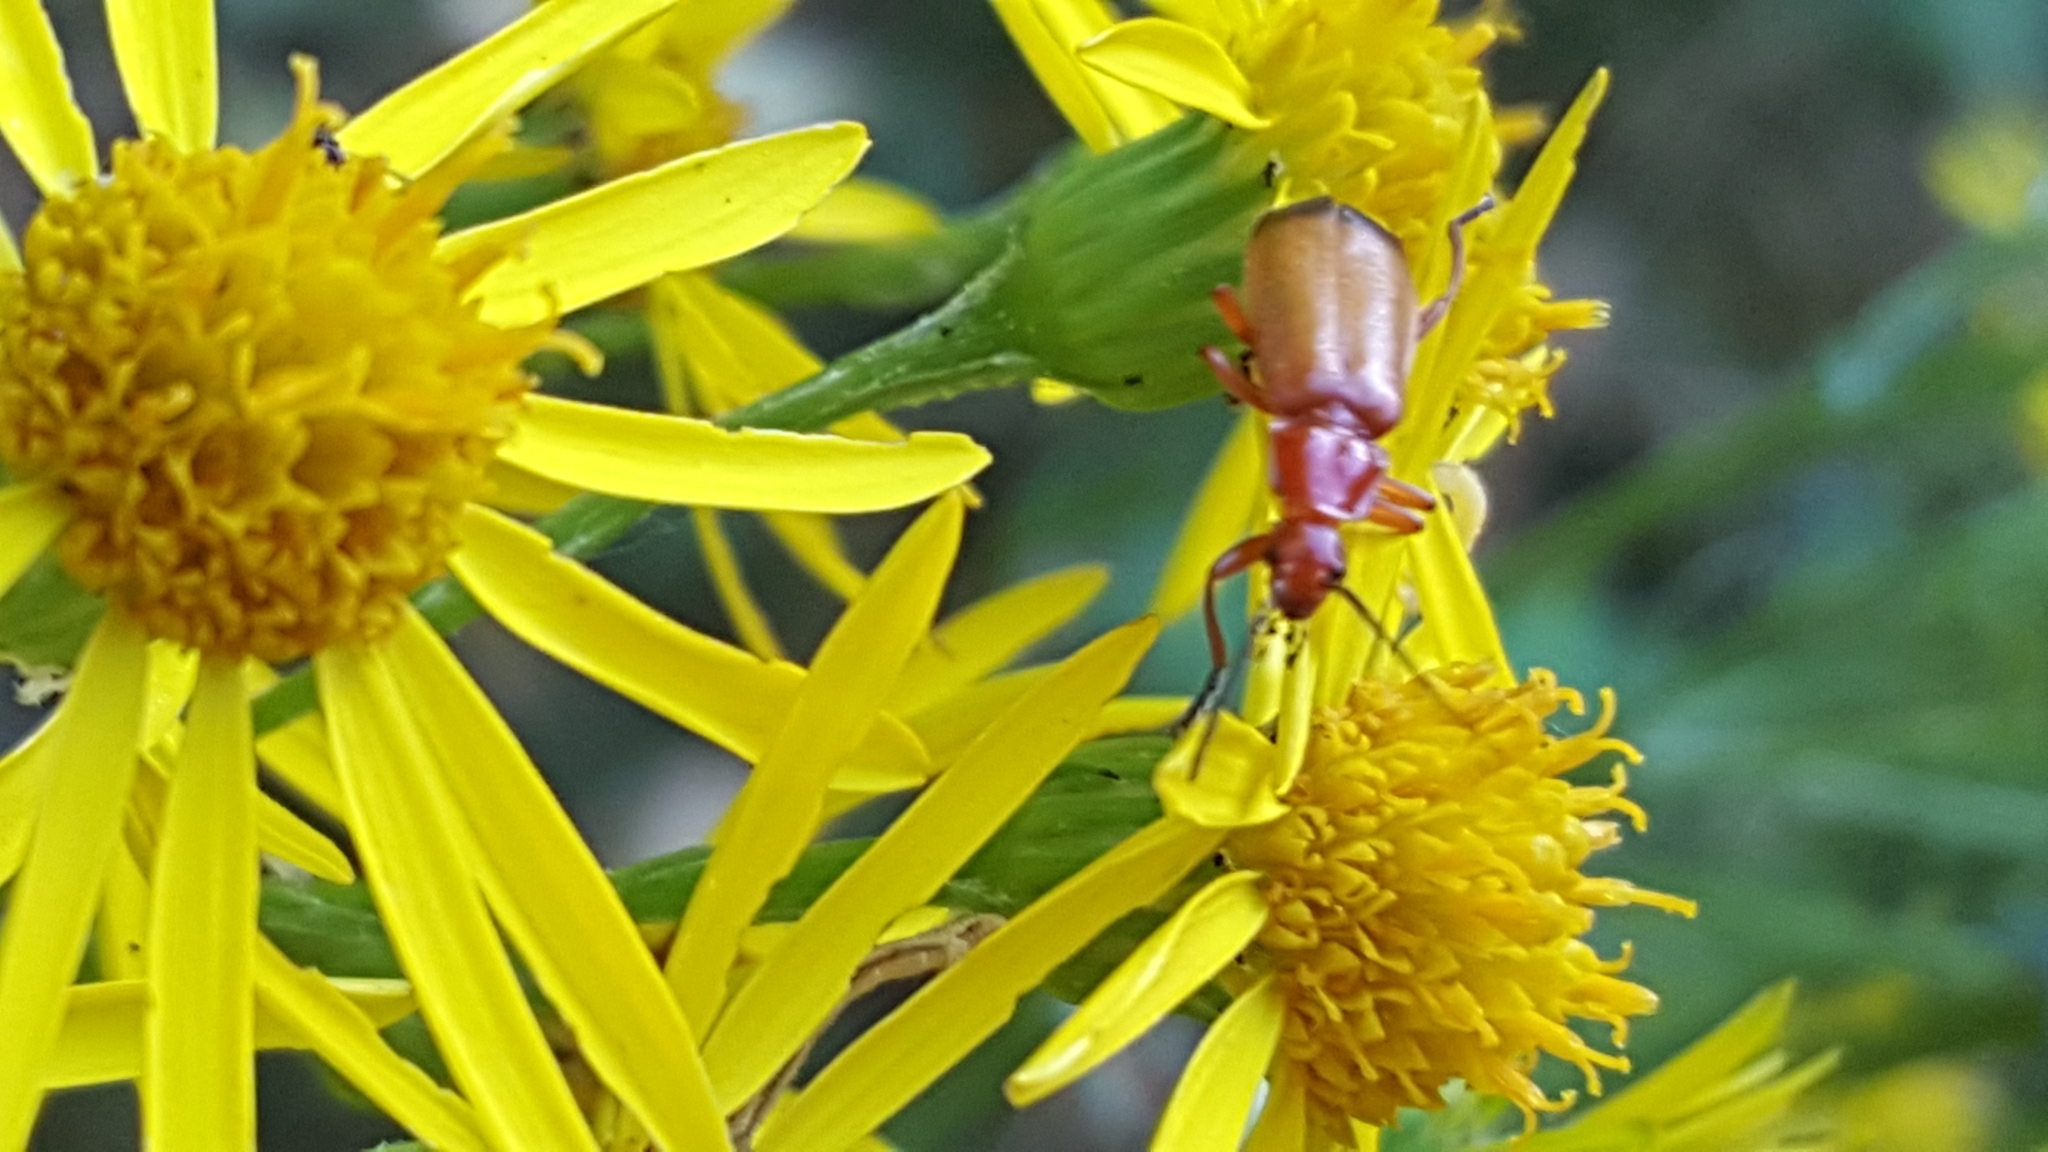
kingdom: Animalia
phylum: Arthropoda
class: Insecta
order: Coleoptera
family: Cantharidae
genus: Rhagonycha
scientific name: Rhagonycha fulva
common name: Common red soldier beetle
